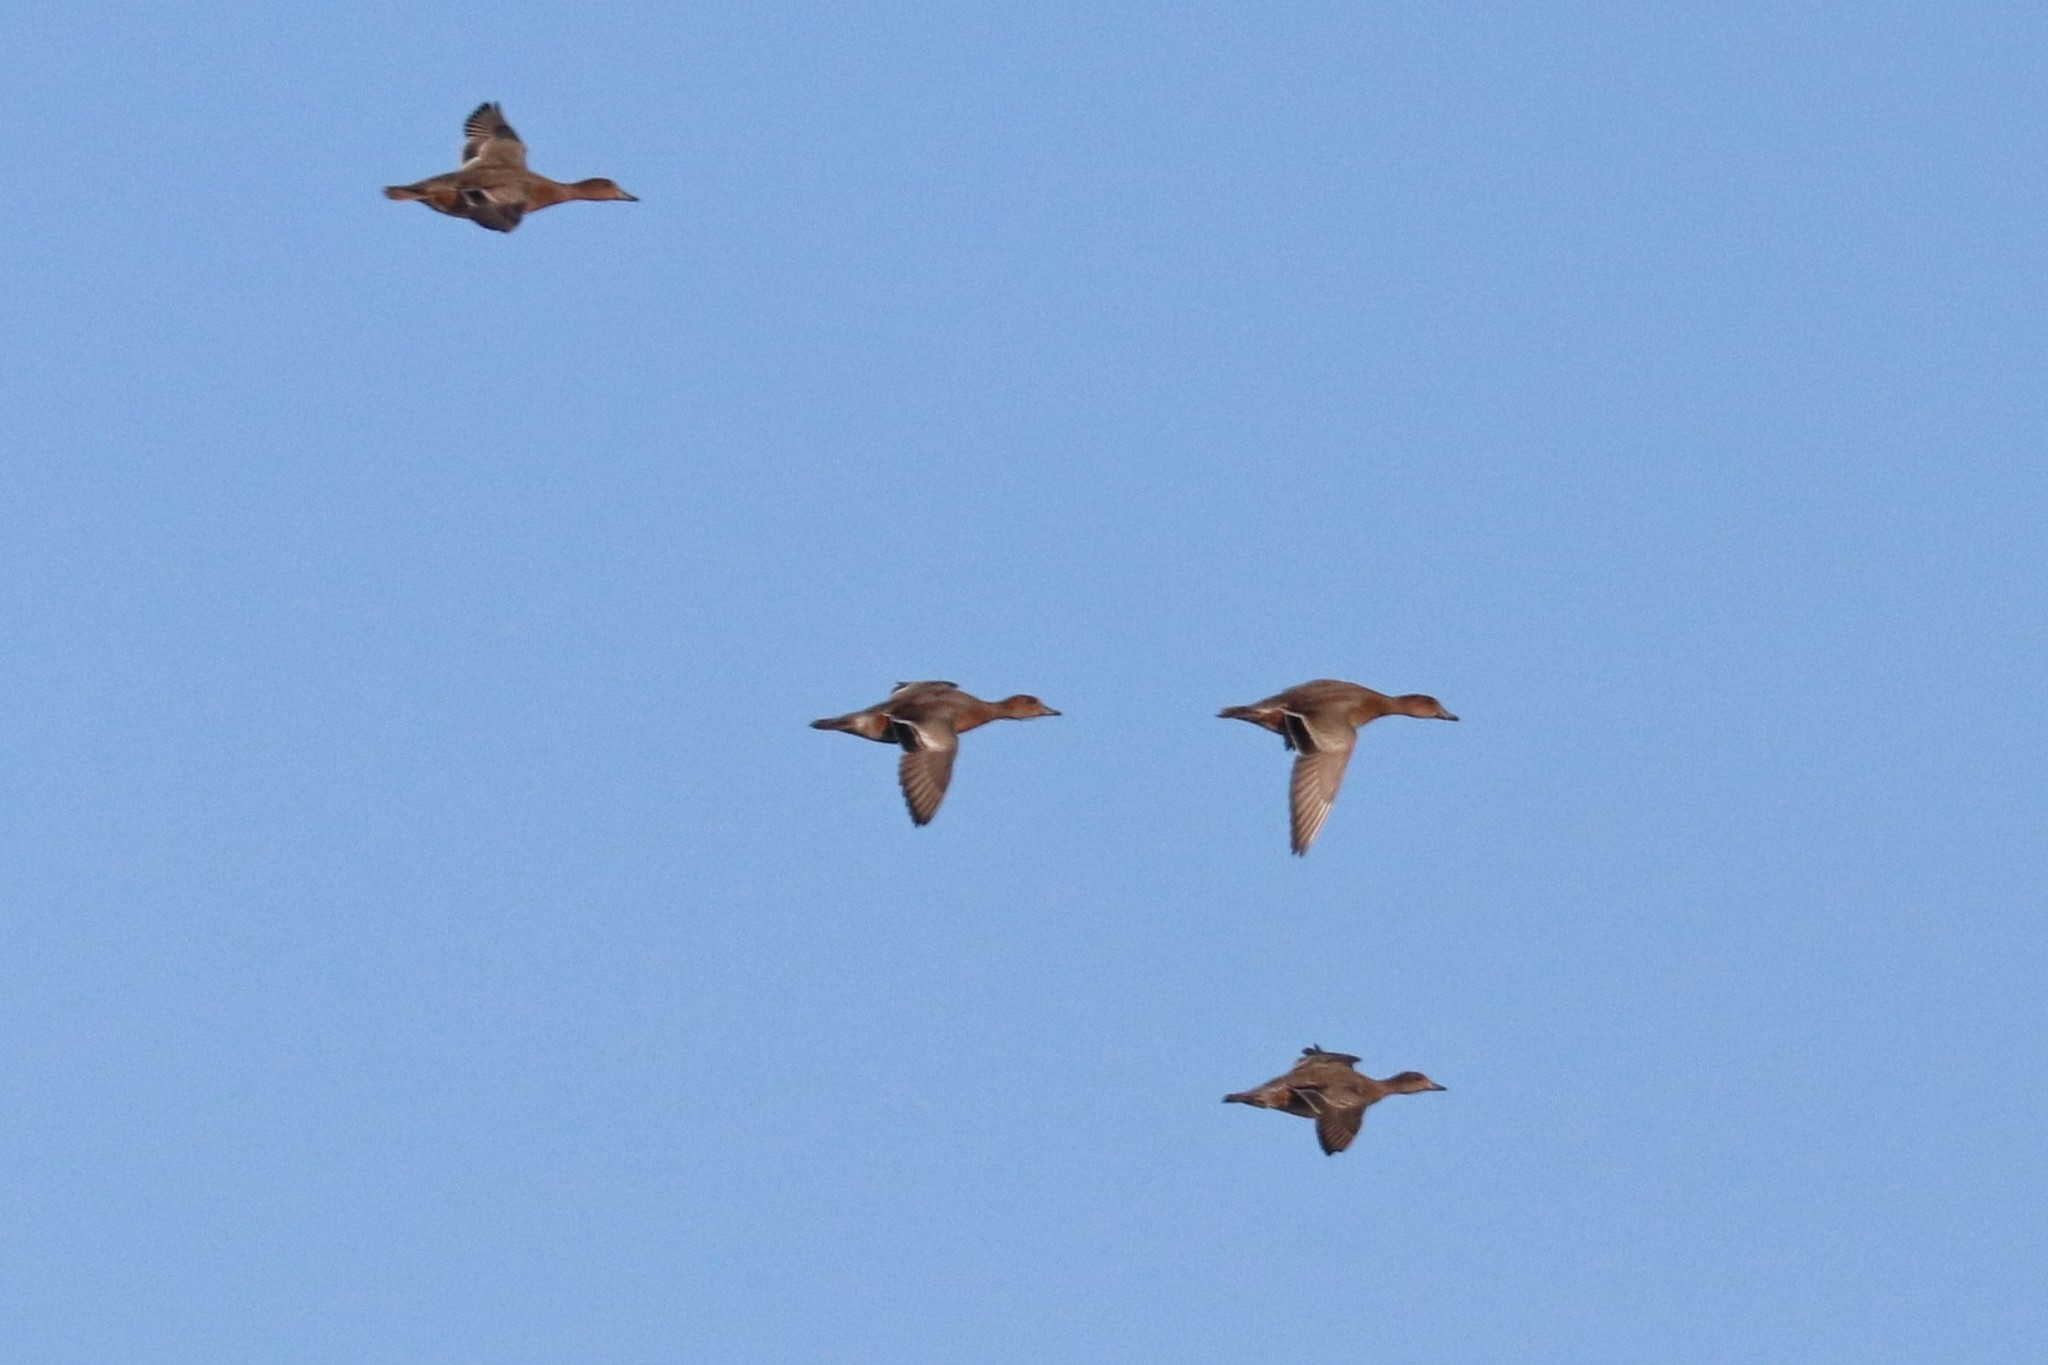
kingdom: Animalia
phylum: Chordata
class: Aves
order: Anseriformes
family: Anatidae
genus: Mareca
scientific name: Mareca penelope
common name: Eurasian wigeon
